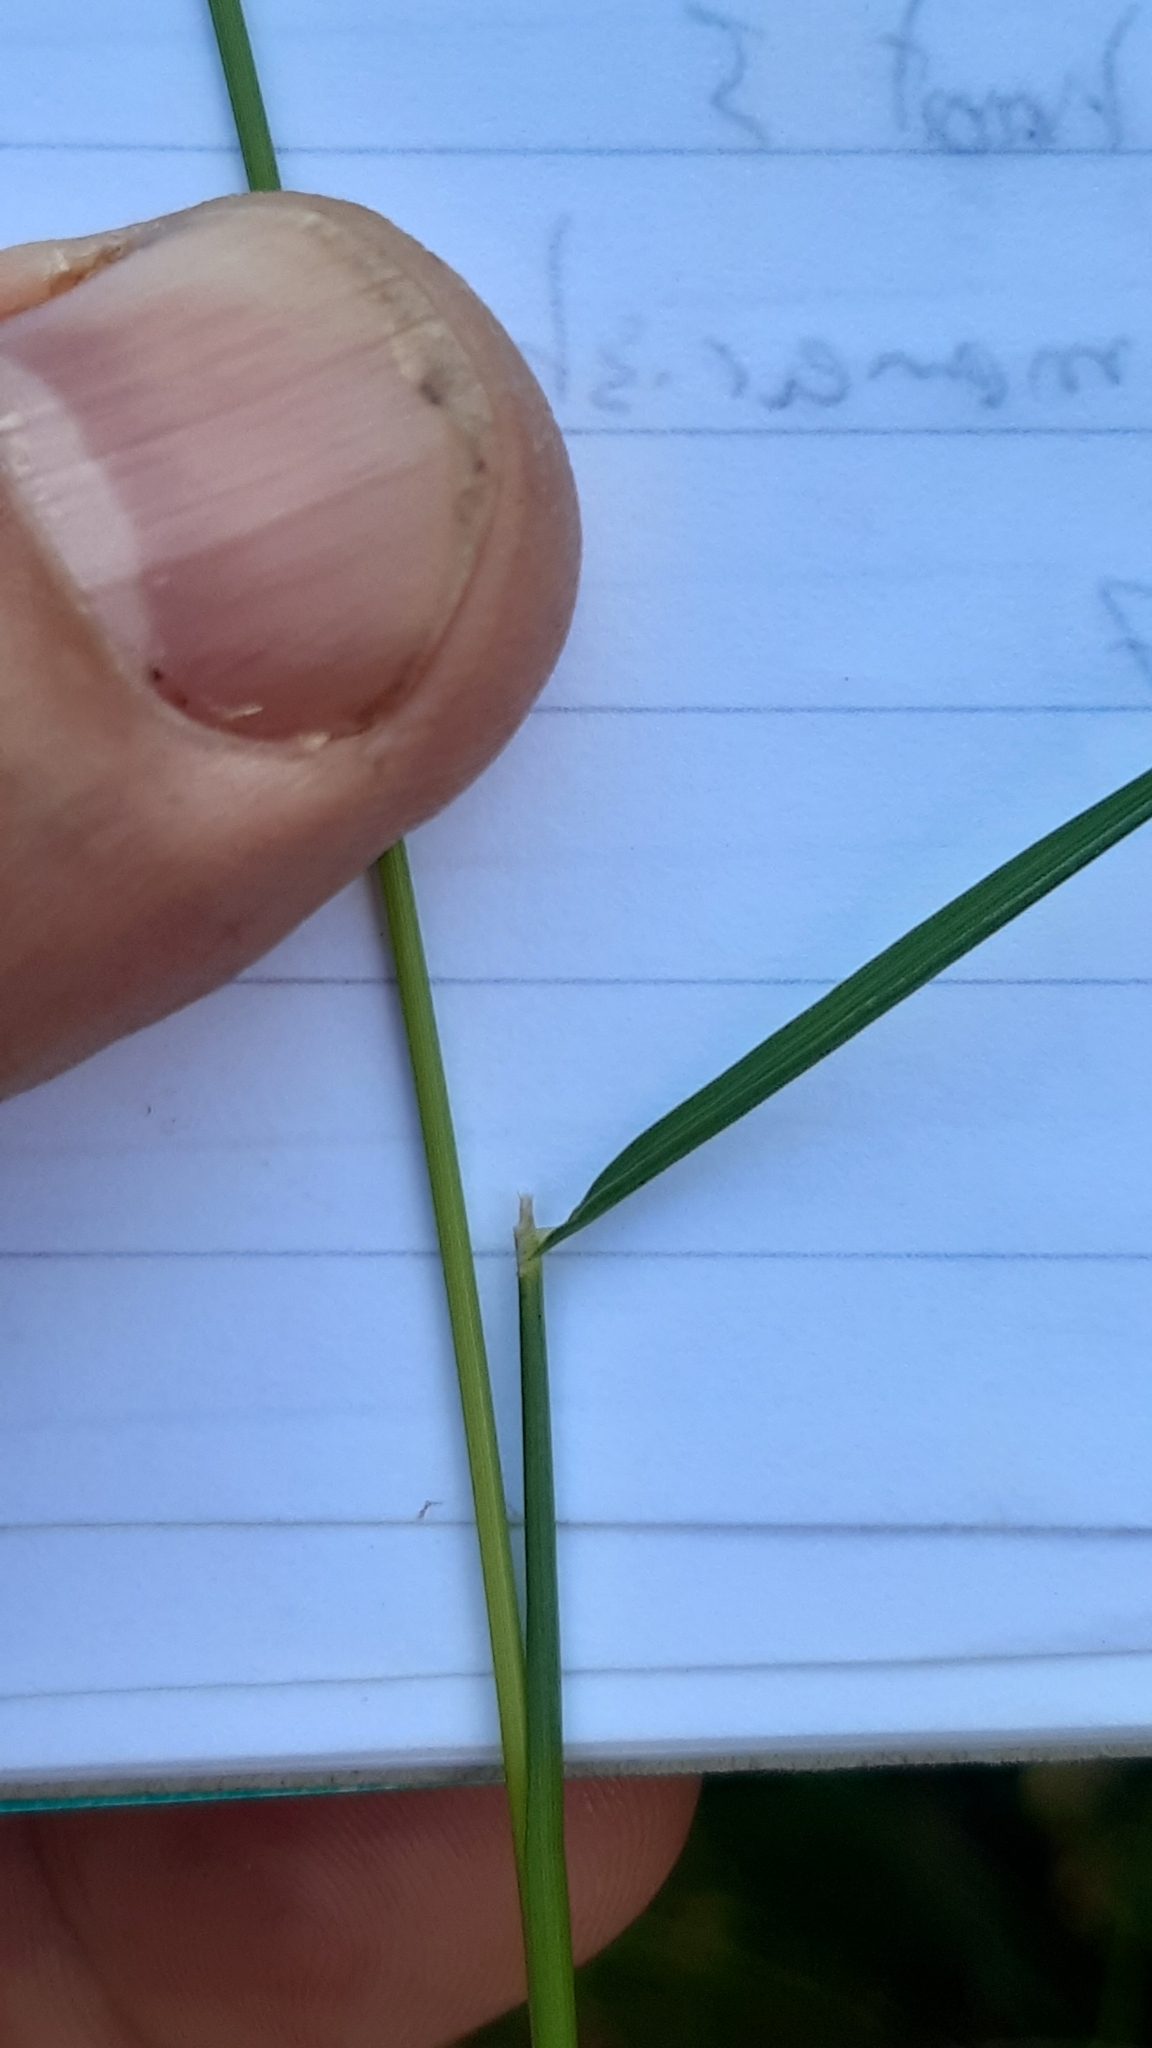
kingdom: Plantae
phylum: Tracheophyta
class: Liliopsida
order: Poales
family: Poaceae
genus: Agrostis
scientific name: Agrostis capillaris
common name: Colonial bentgrass
